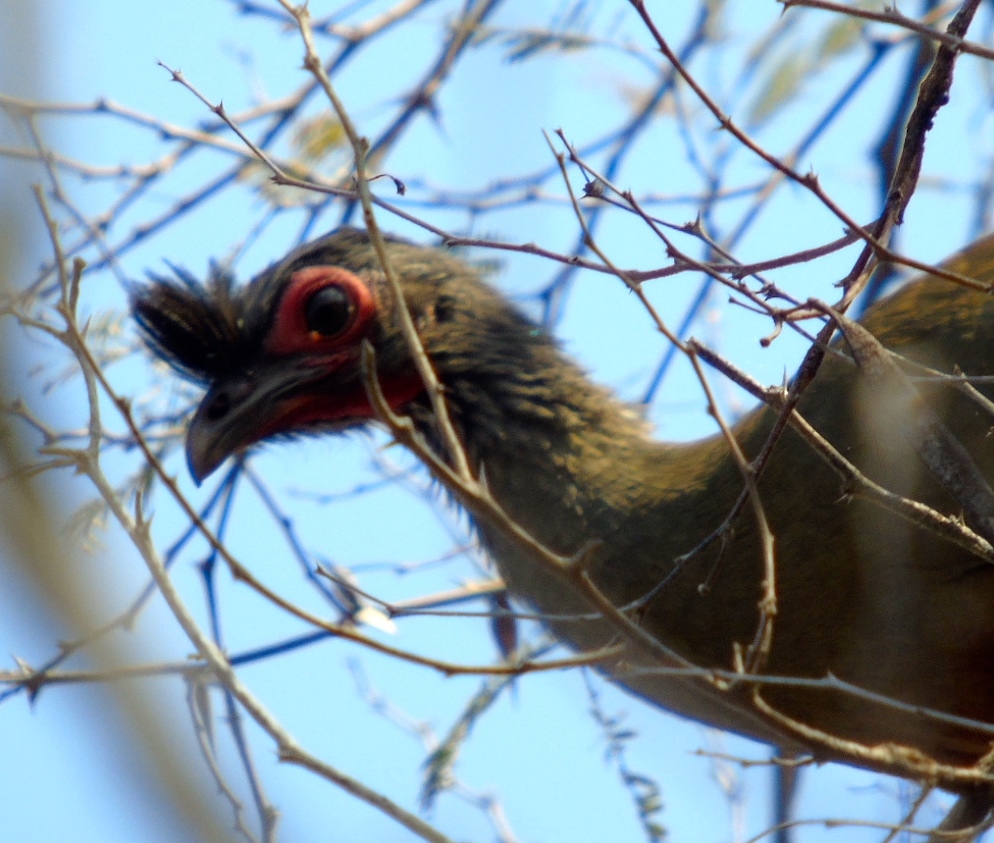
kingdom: Animalia
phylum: Chordata
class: Aves
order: Galliformes
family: Cracidae
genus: Ortalis
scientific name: Ortalis wagleri
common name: Rufous-bellied chachalaca
